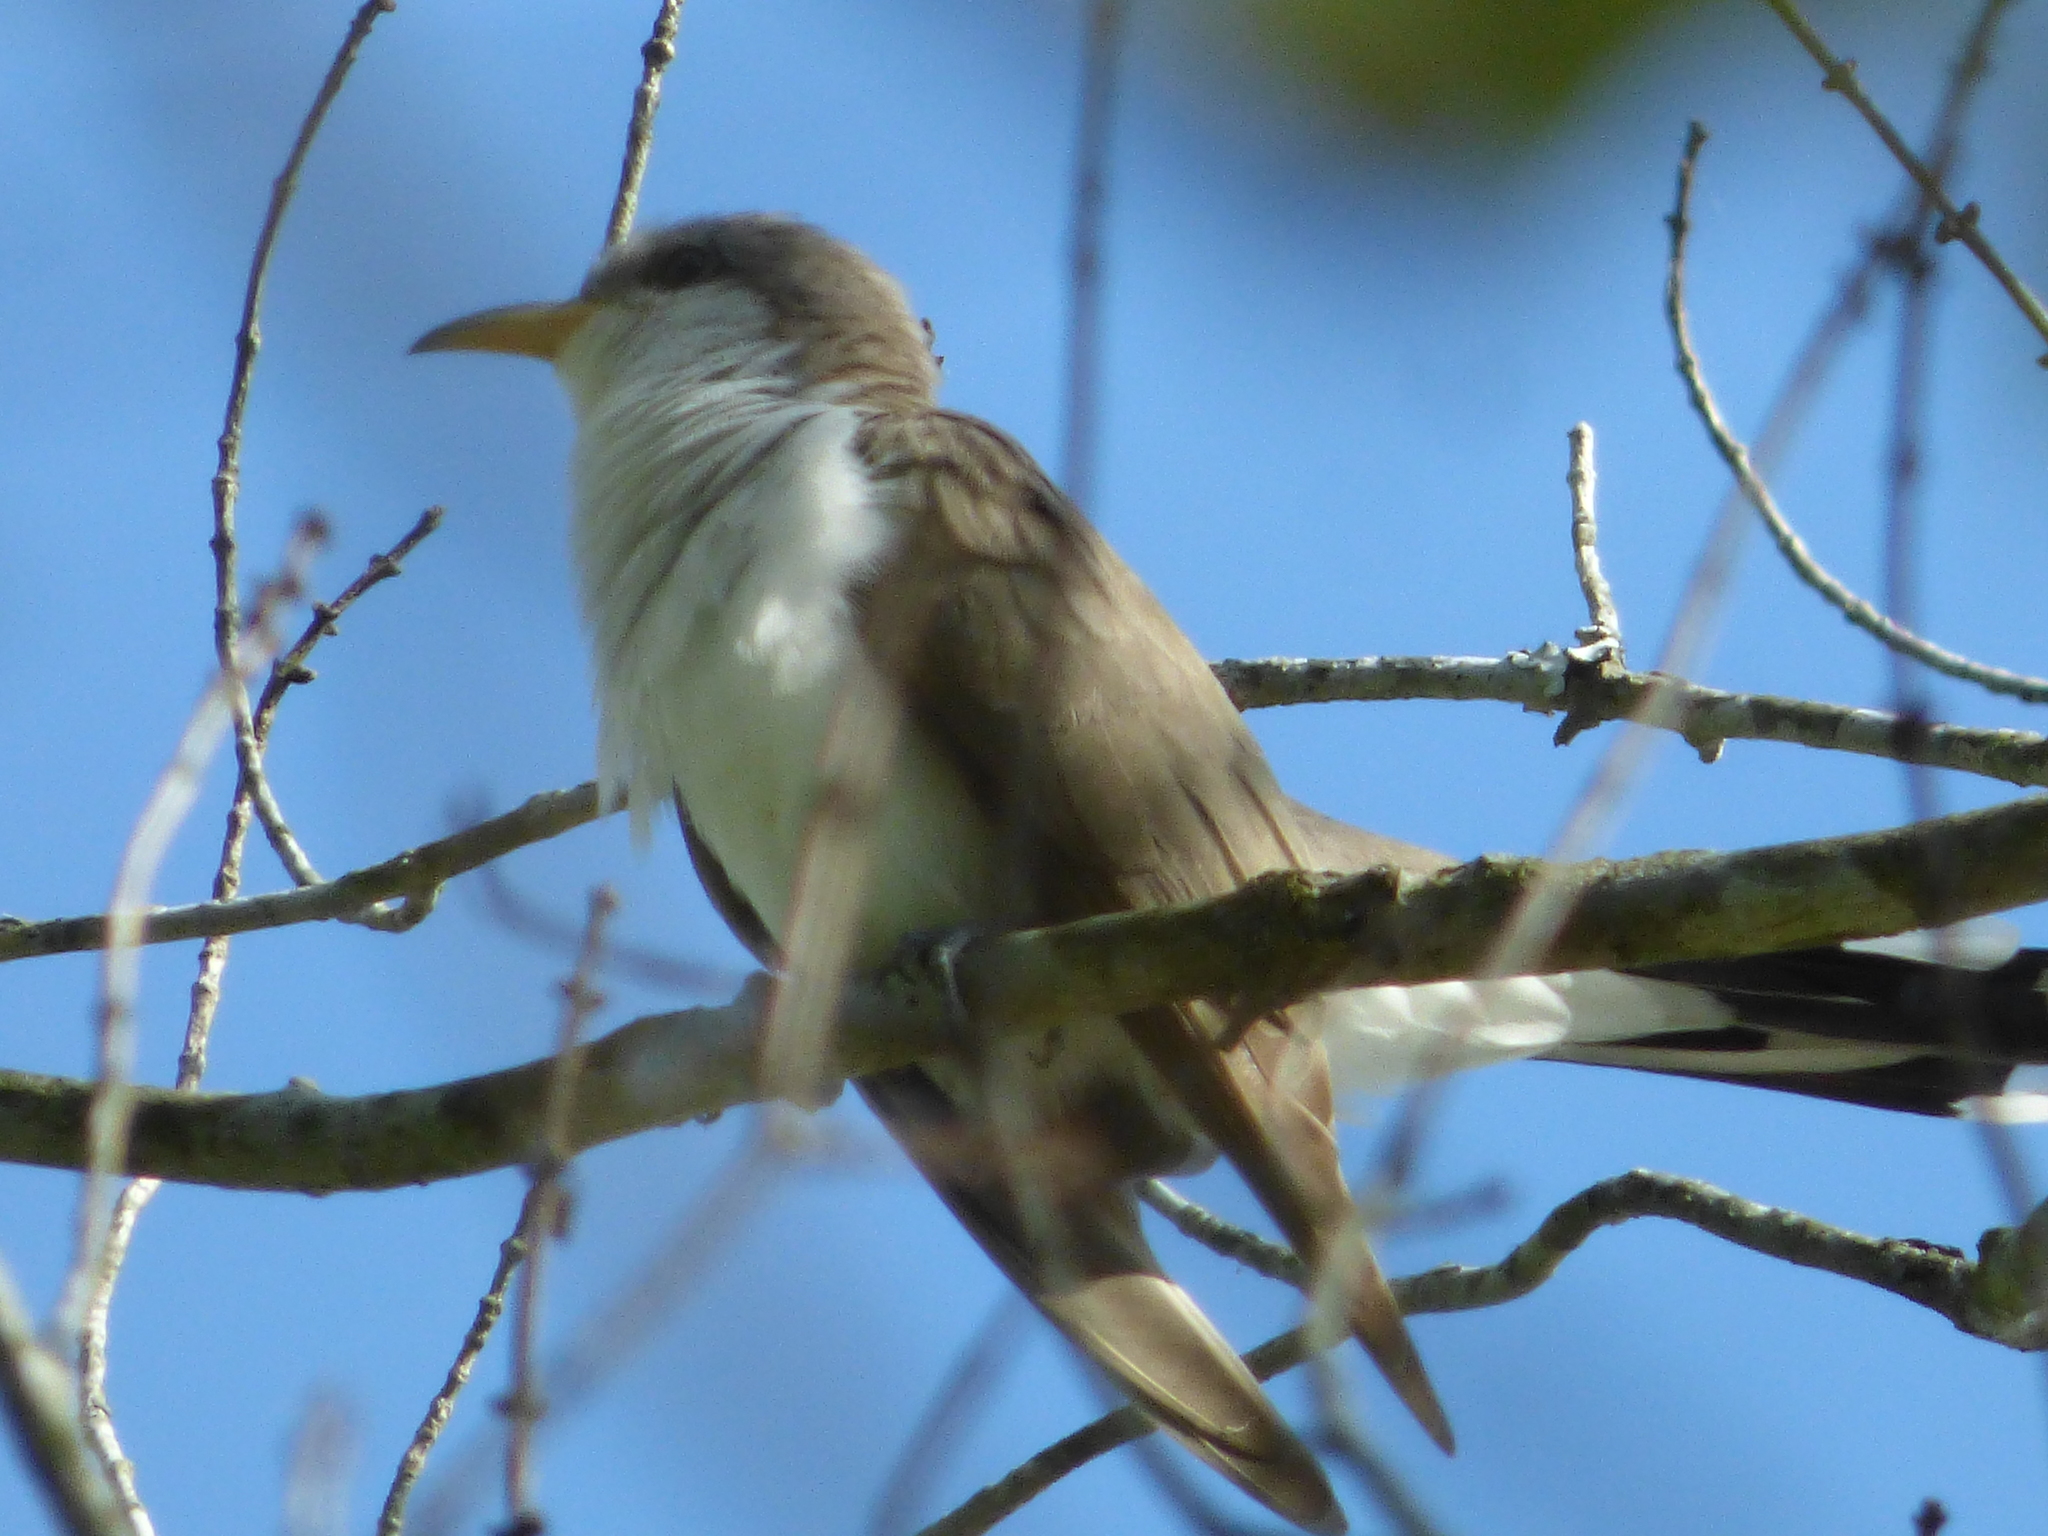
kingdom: Animalia
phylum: Chordata
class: Aves
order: Cuculiformes
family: Cuculidae
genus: Coccyzus
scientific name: Coccyzus americanus
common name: Yellow-billed cuckoo
